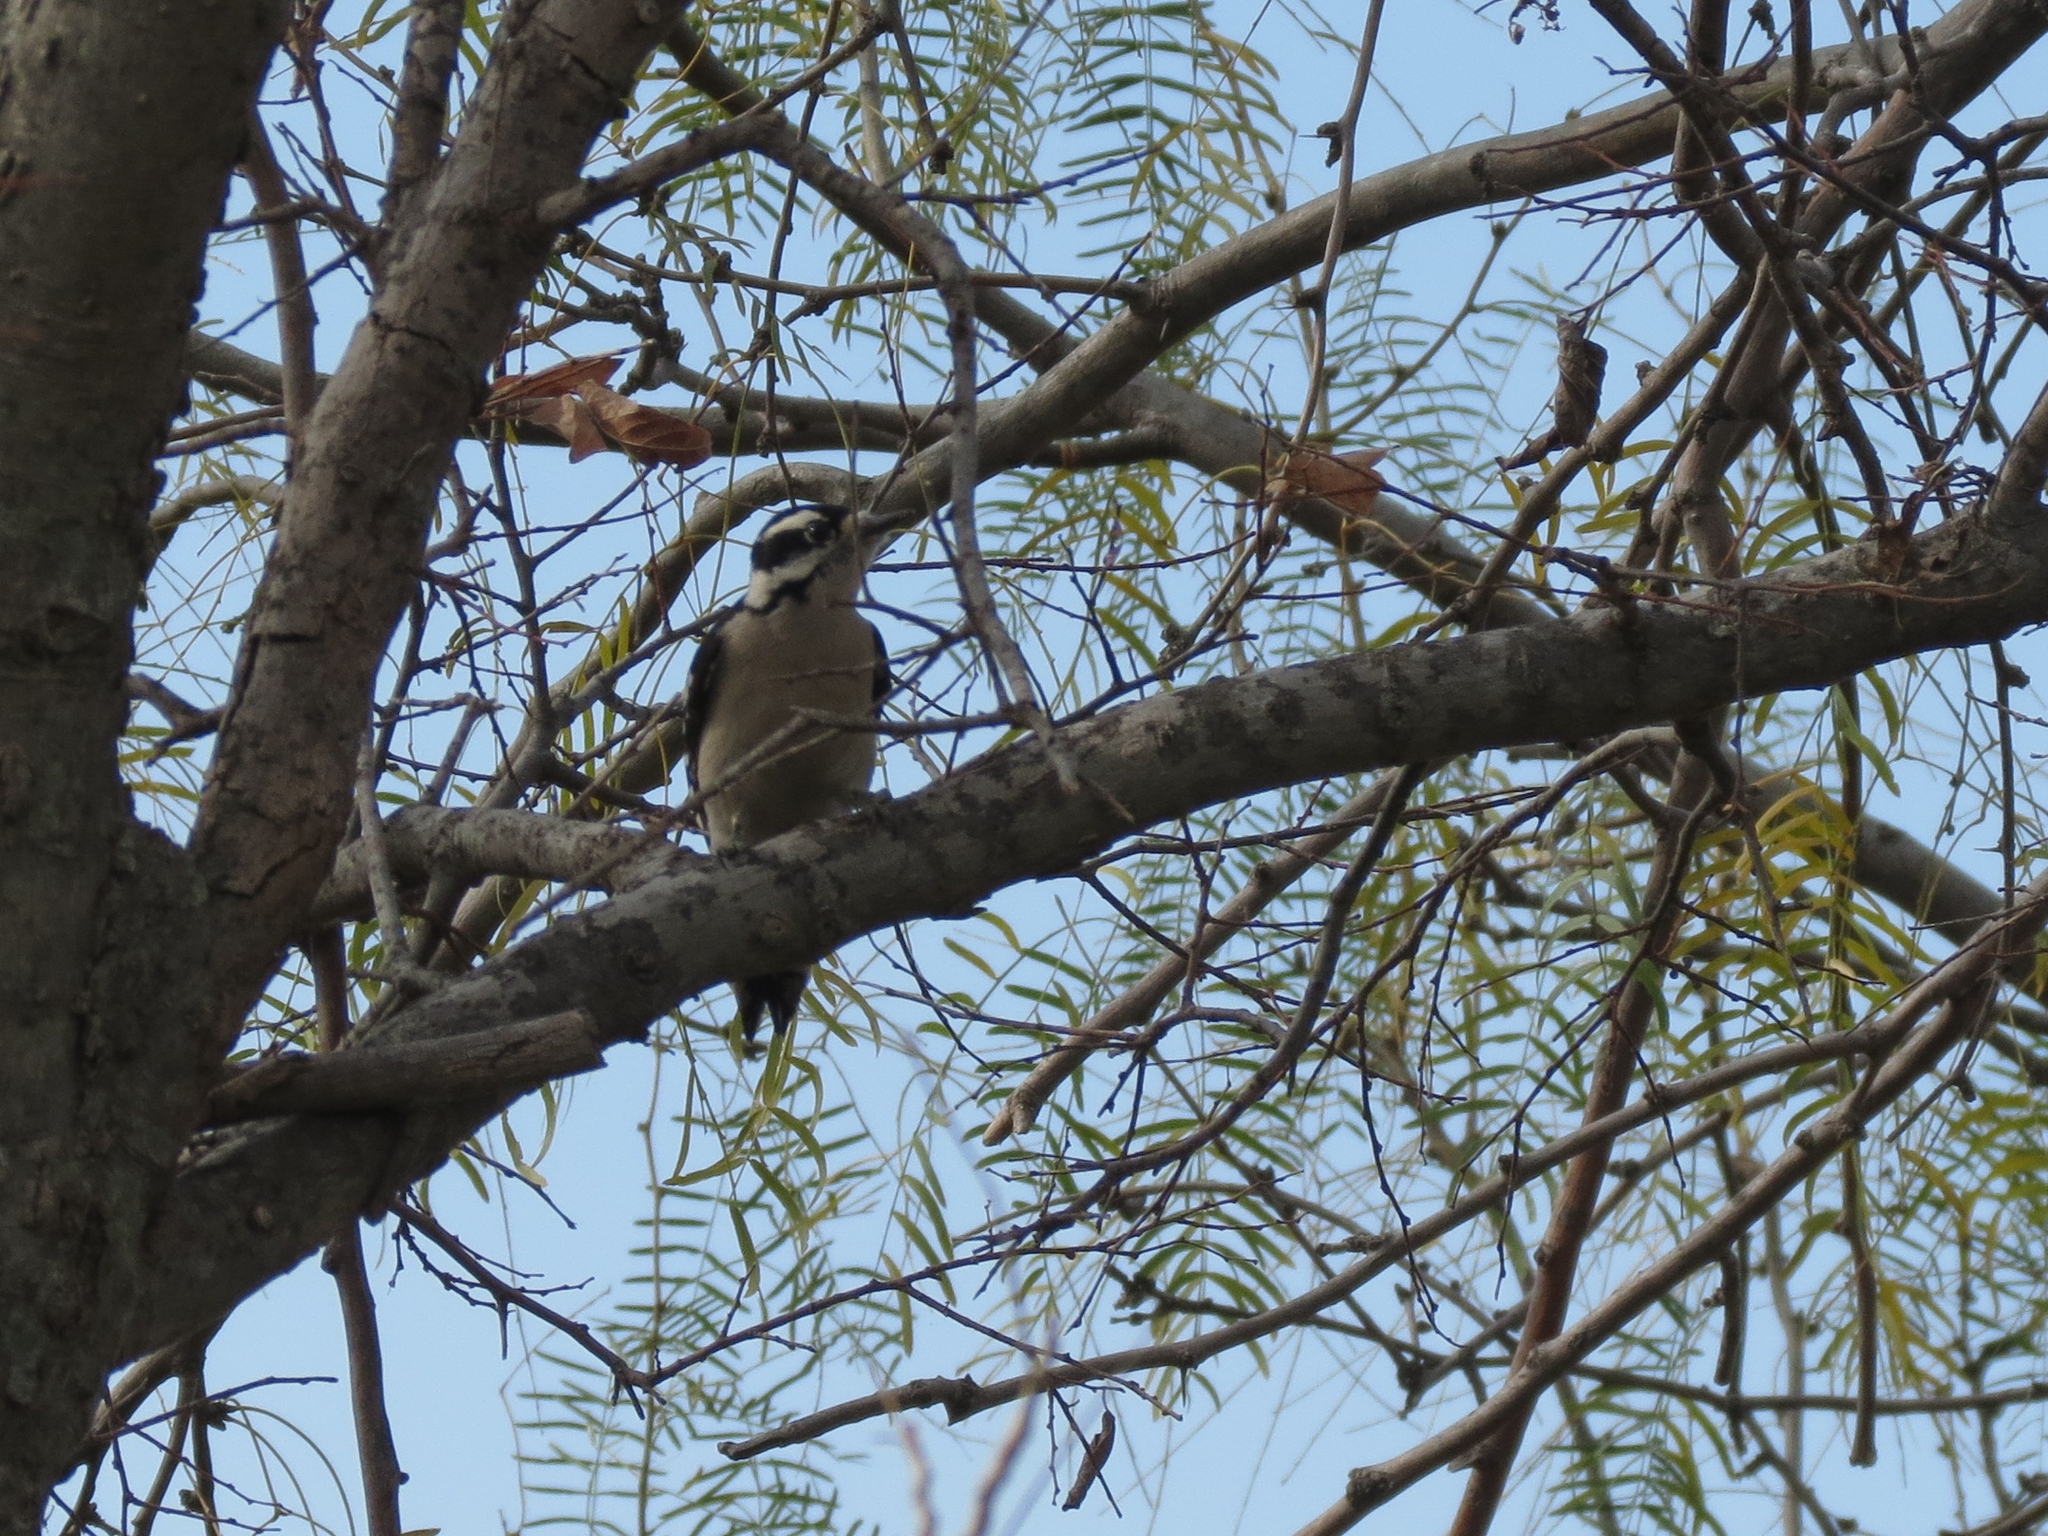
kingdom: Animalia
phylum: Chordata
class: Aves
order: Piciformes
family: Picidae
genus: Dryobates
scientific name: Dryobates pubescens
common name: Downy woodpecker
